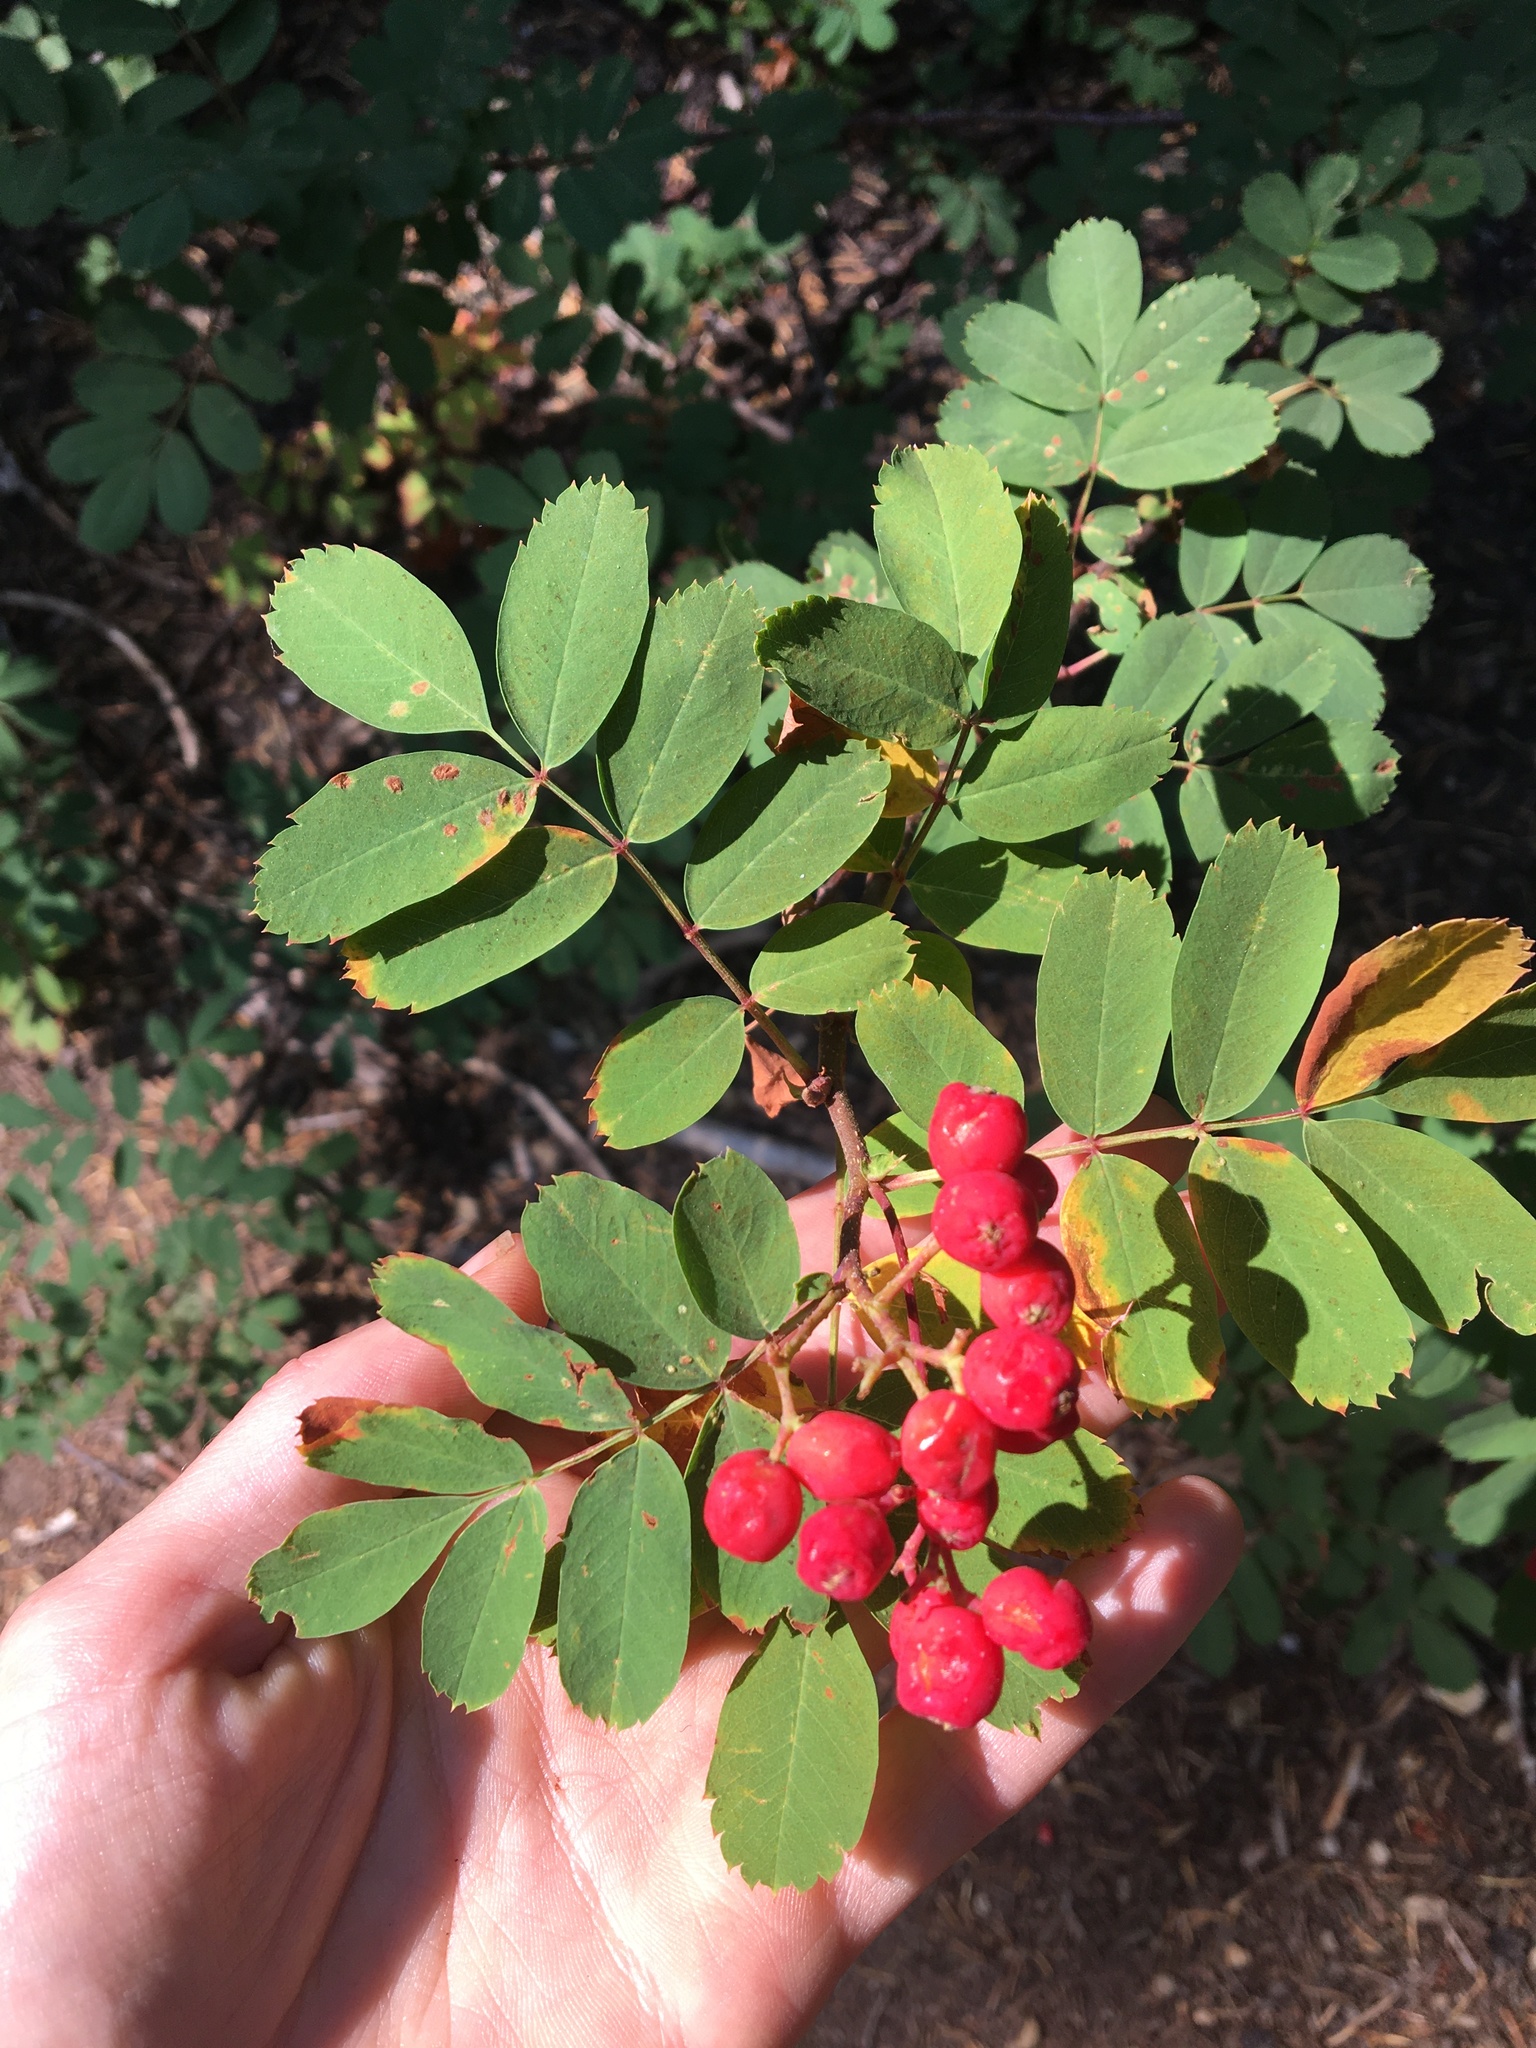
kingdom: Plantae
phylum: Tracheophyta
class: Magnoliopsida
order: Rosales
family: Rosaceae
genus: Sorbus
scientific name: Sorbus sitchensis
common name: Sitka mountain-ash
